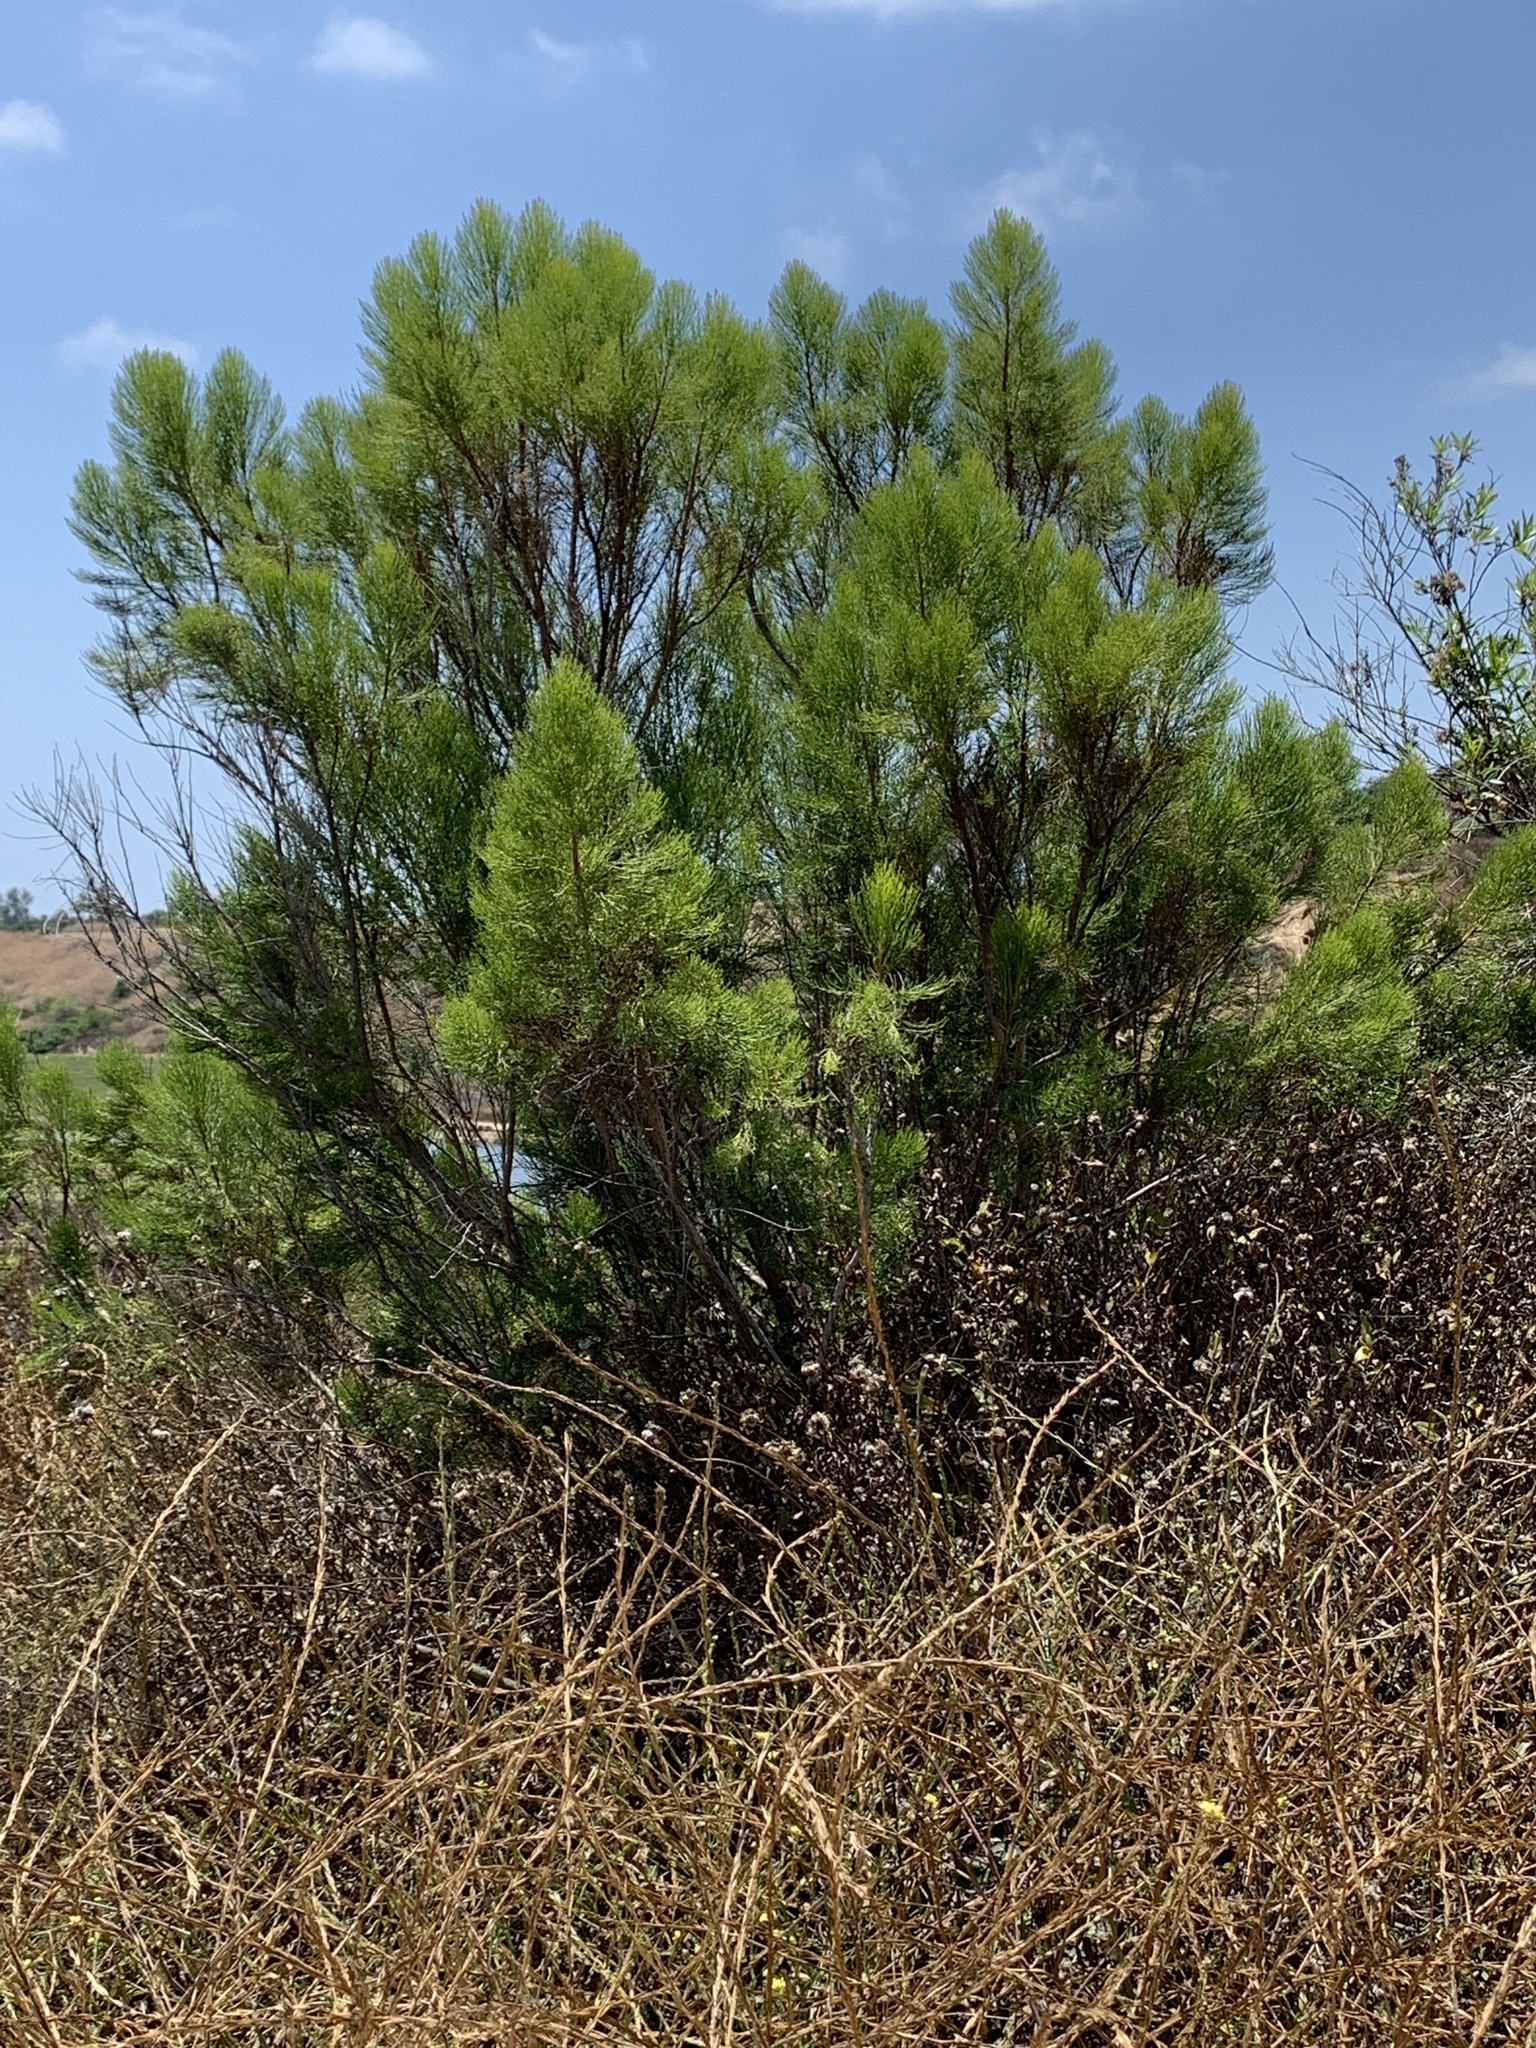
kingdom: Plantae
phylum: Tracheophyta
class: Magnoliopsida
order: Asterales
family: Asteraceae
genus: Baccharis
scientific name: Baccharis sarothroides
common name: Desert-broom
